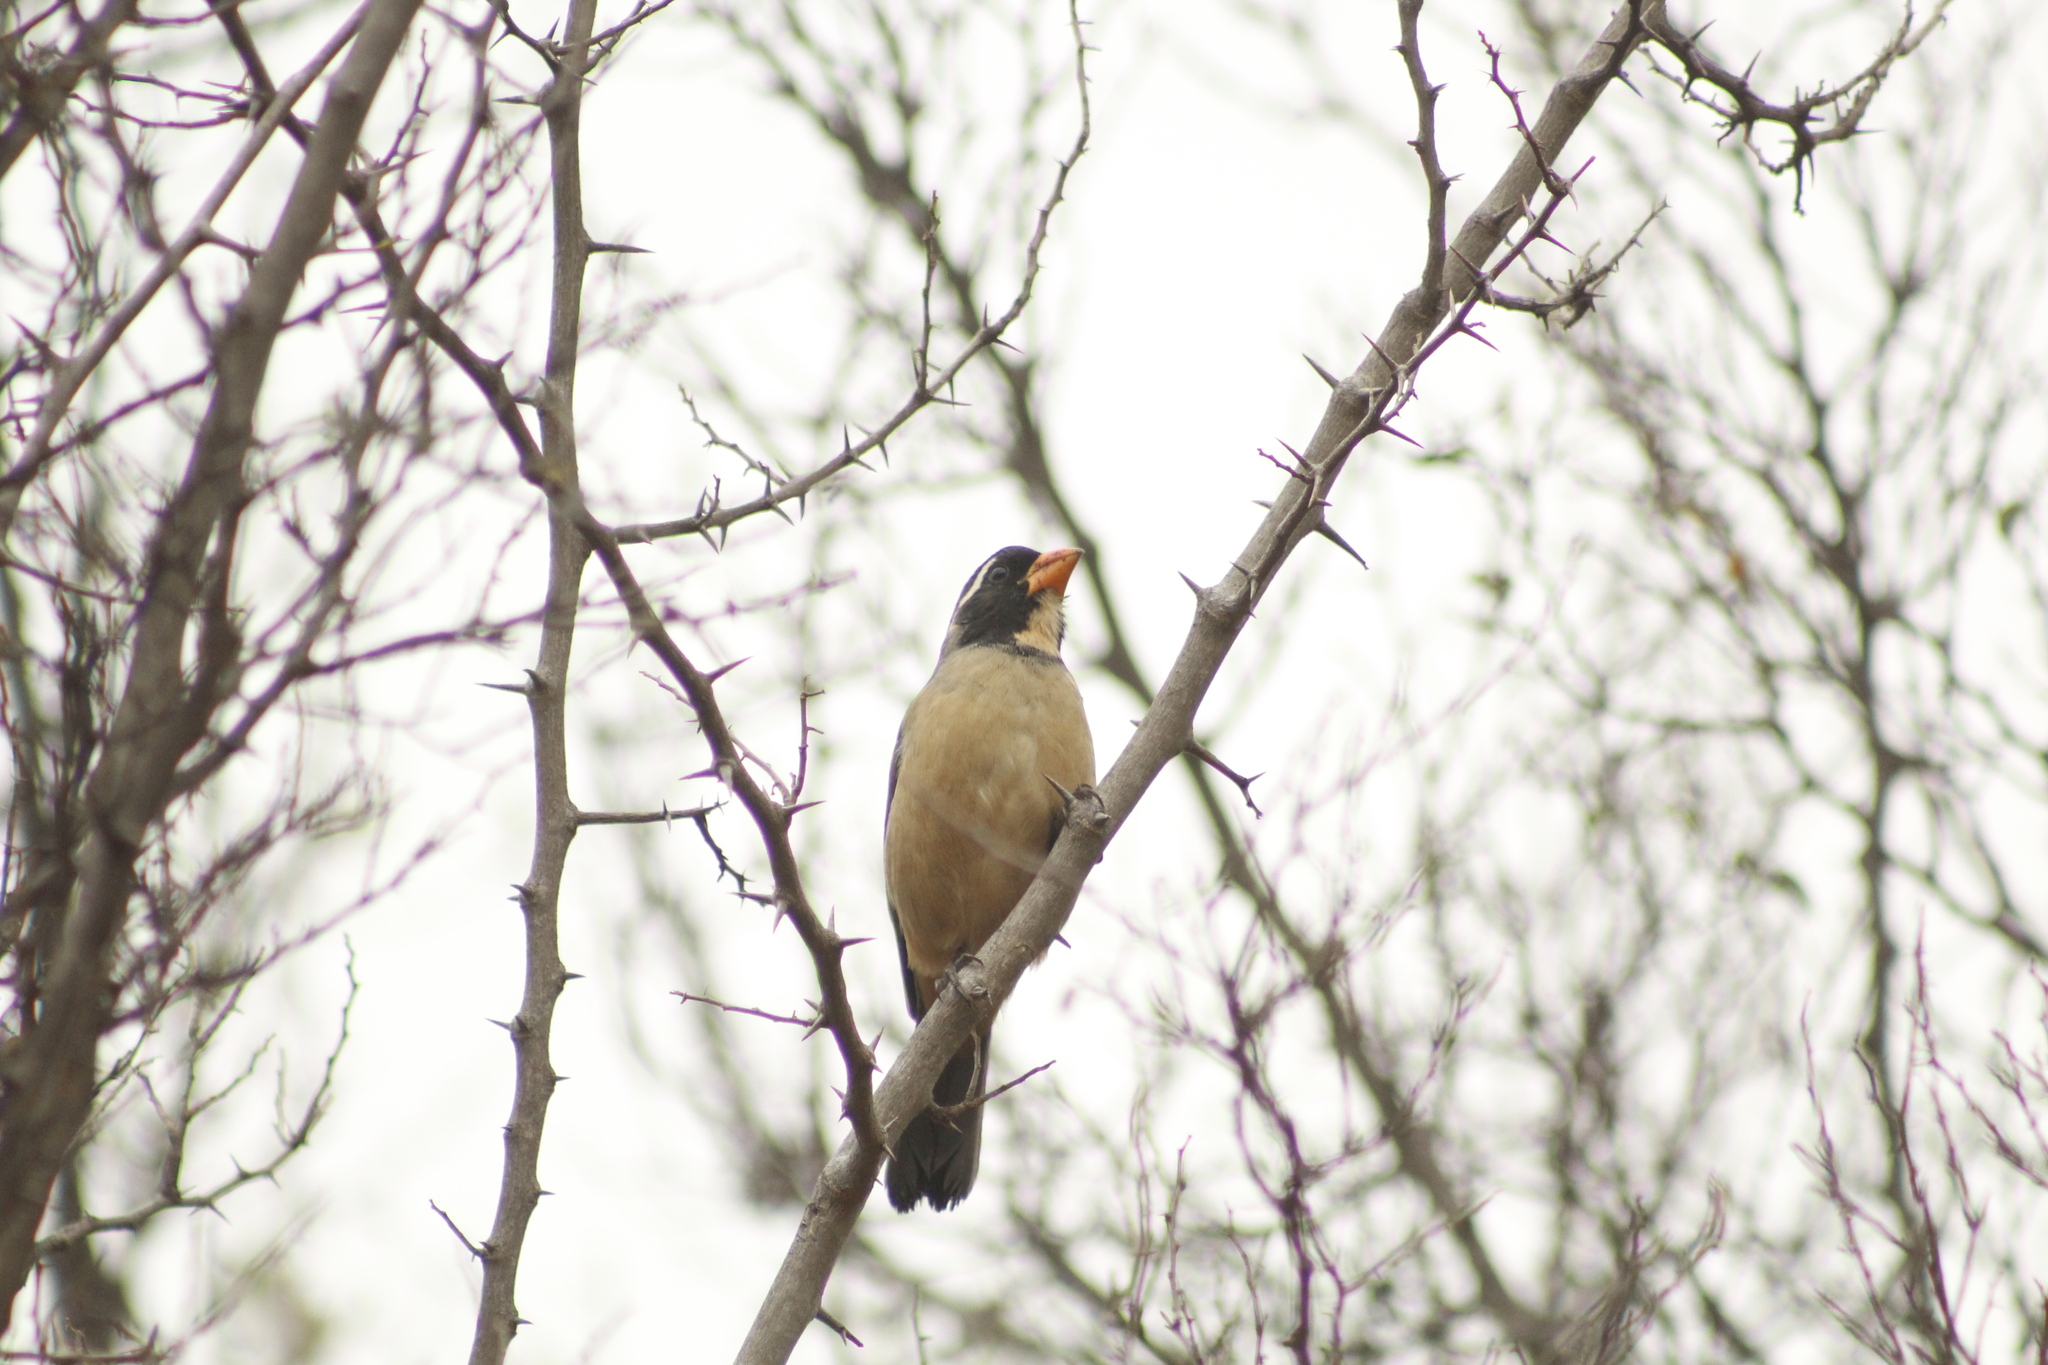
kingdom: Animalia
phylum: Chordata
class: Aves
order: Passeriformes
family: Thraupidae
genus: Saltator
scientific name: Saltator aurantiirostris
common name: Golden-billed saltator
